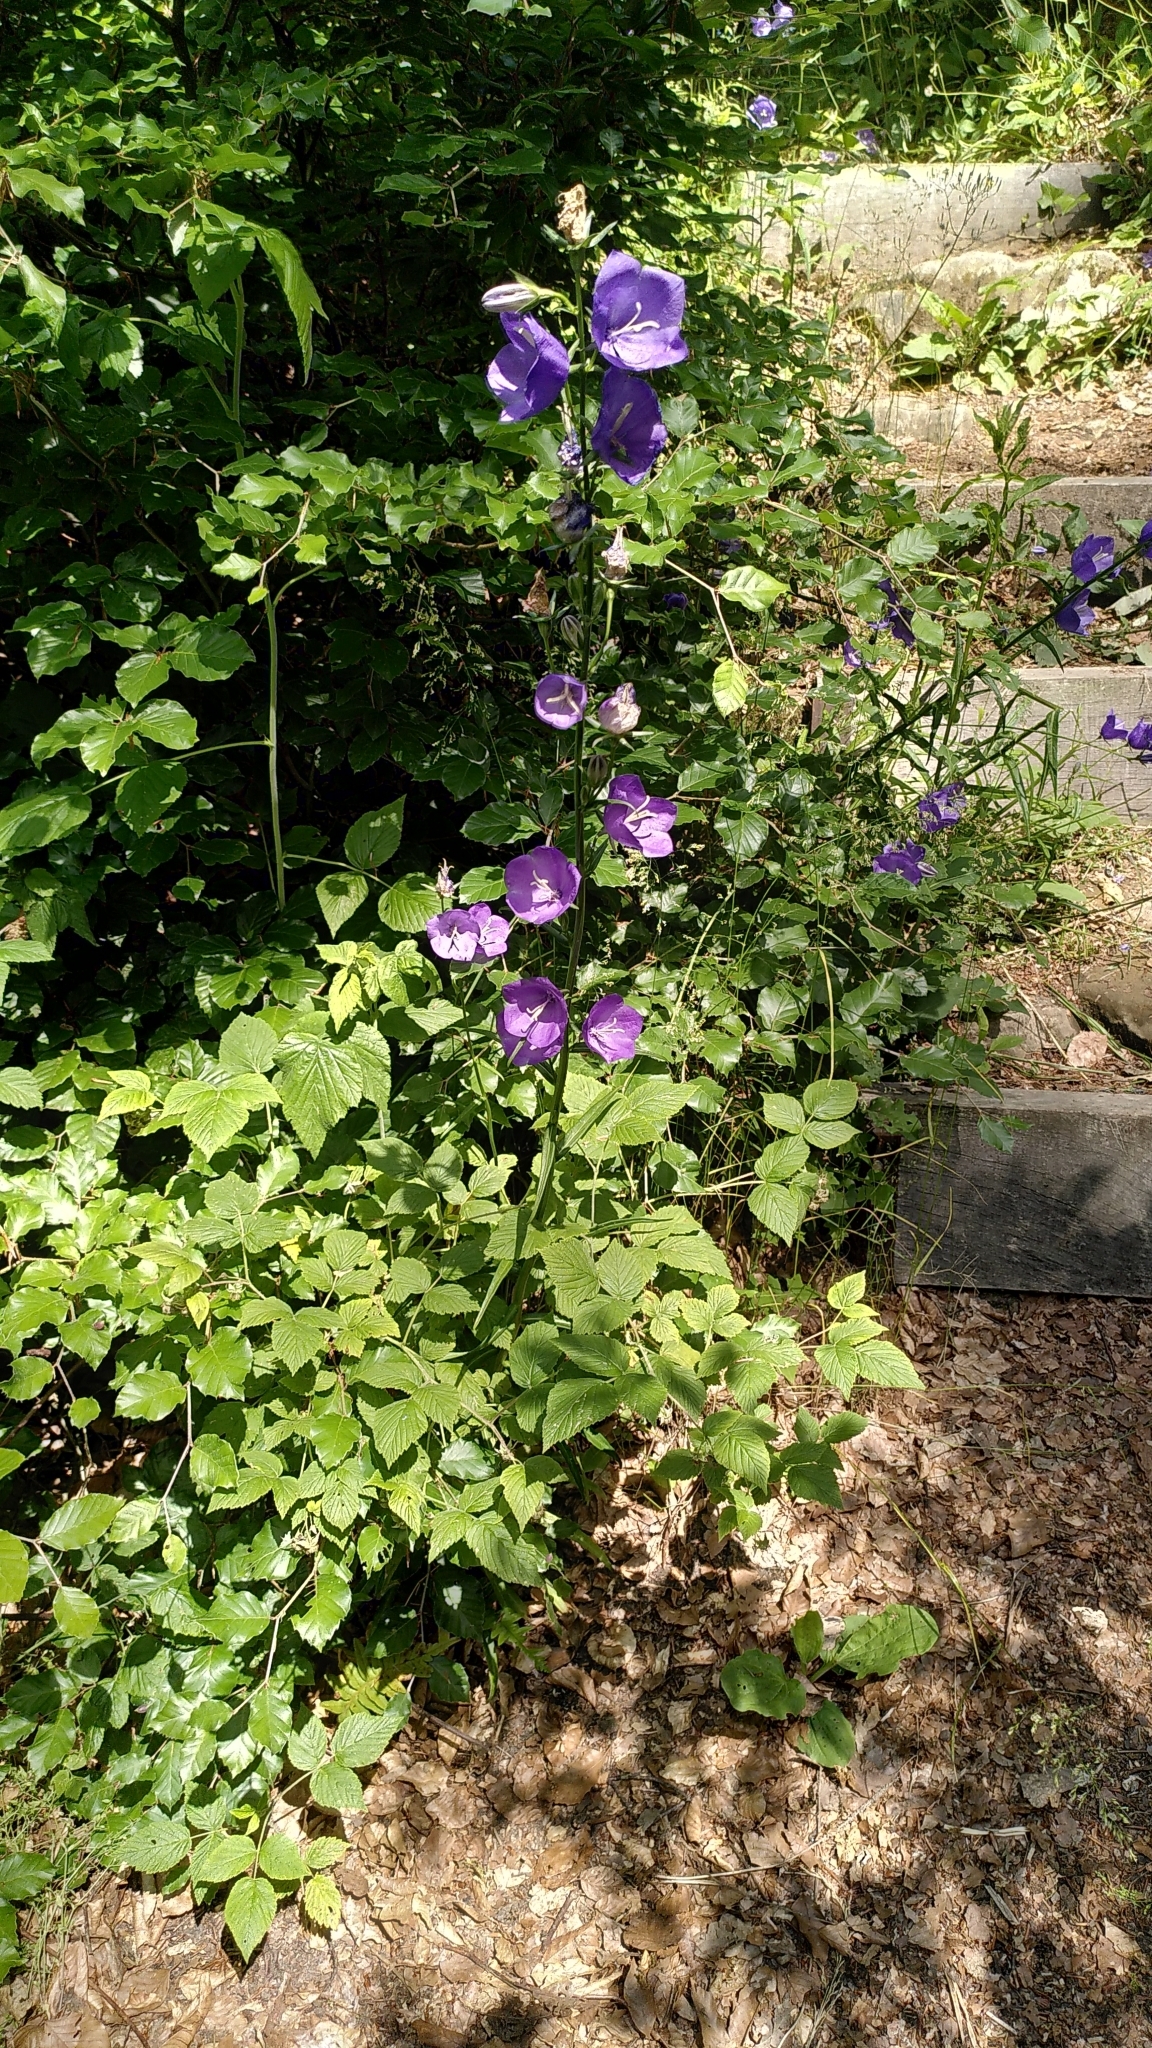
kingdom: Plantae
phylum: Tracheophyta
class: Magnoliopsida
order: Asterales
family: Campanulaceae
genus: Campanula
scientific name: Campanula persicifolia
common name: Peach-leaved bellflower
